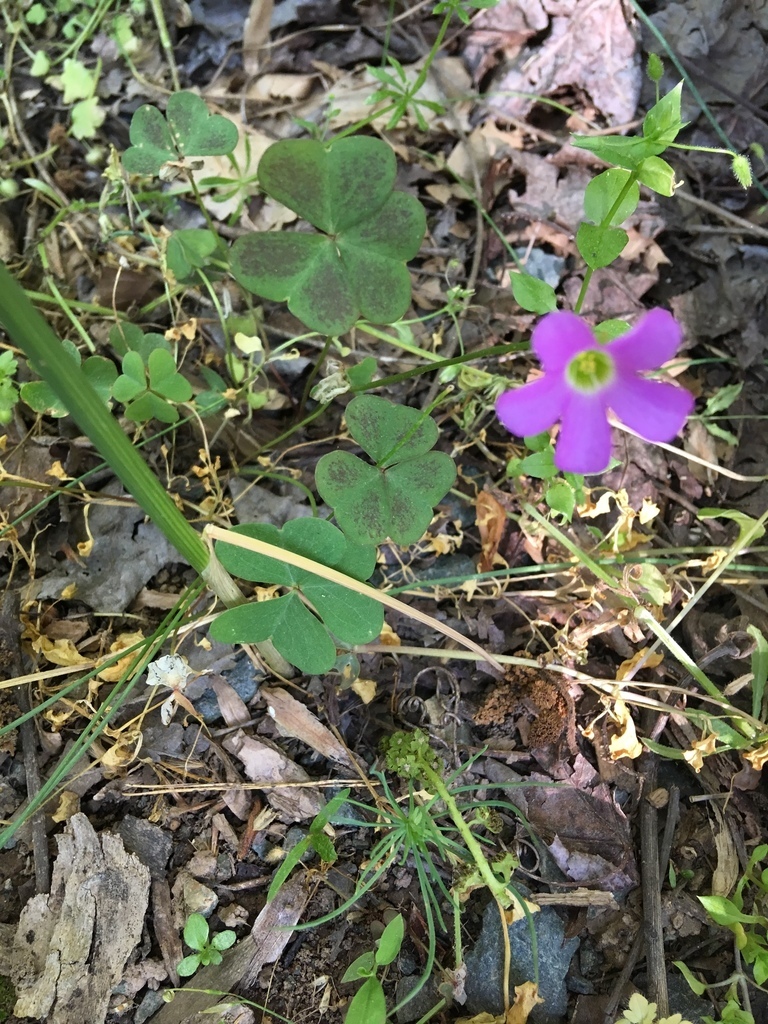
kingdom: Plantae
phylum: Tracheophyta
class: Magnoliopsida
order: Oxalidales
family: Oxalidaceae
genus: Oxalis
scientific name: Oxalis violacea
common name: Violet wood-sorrel
